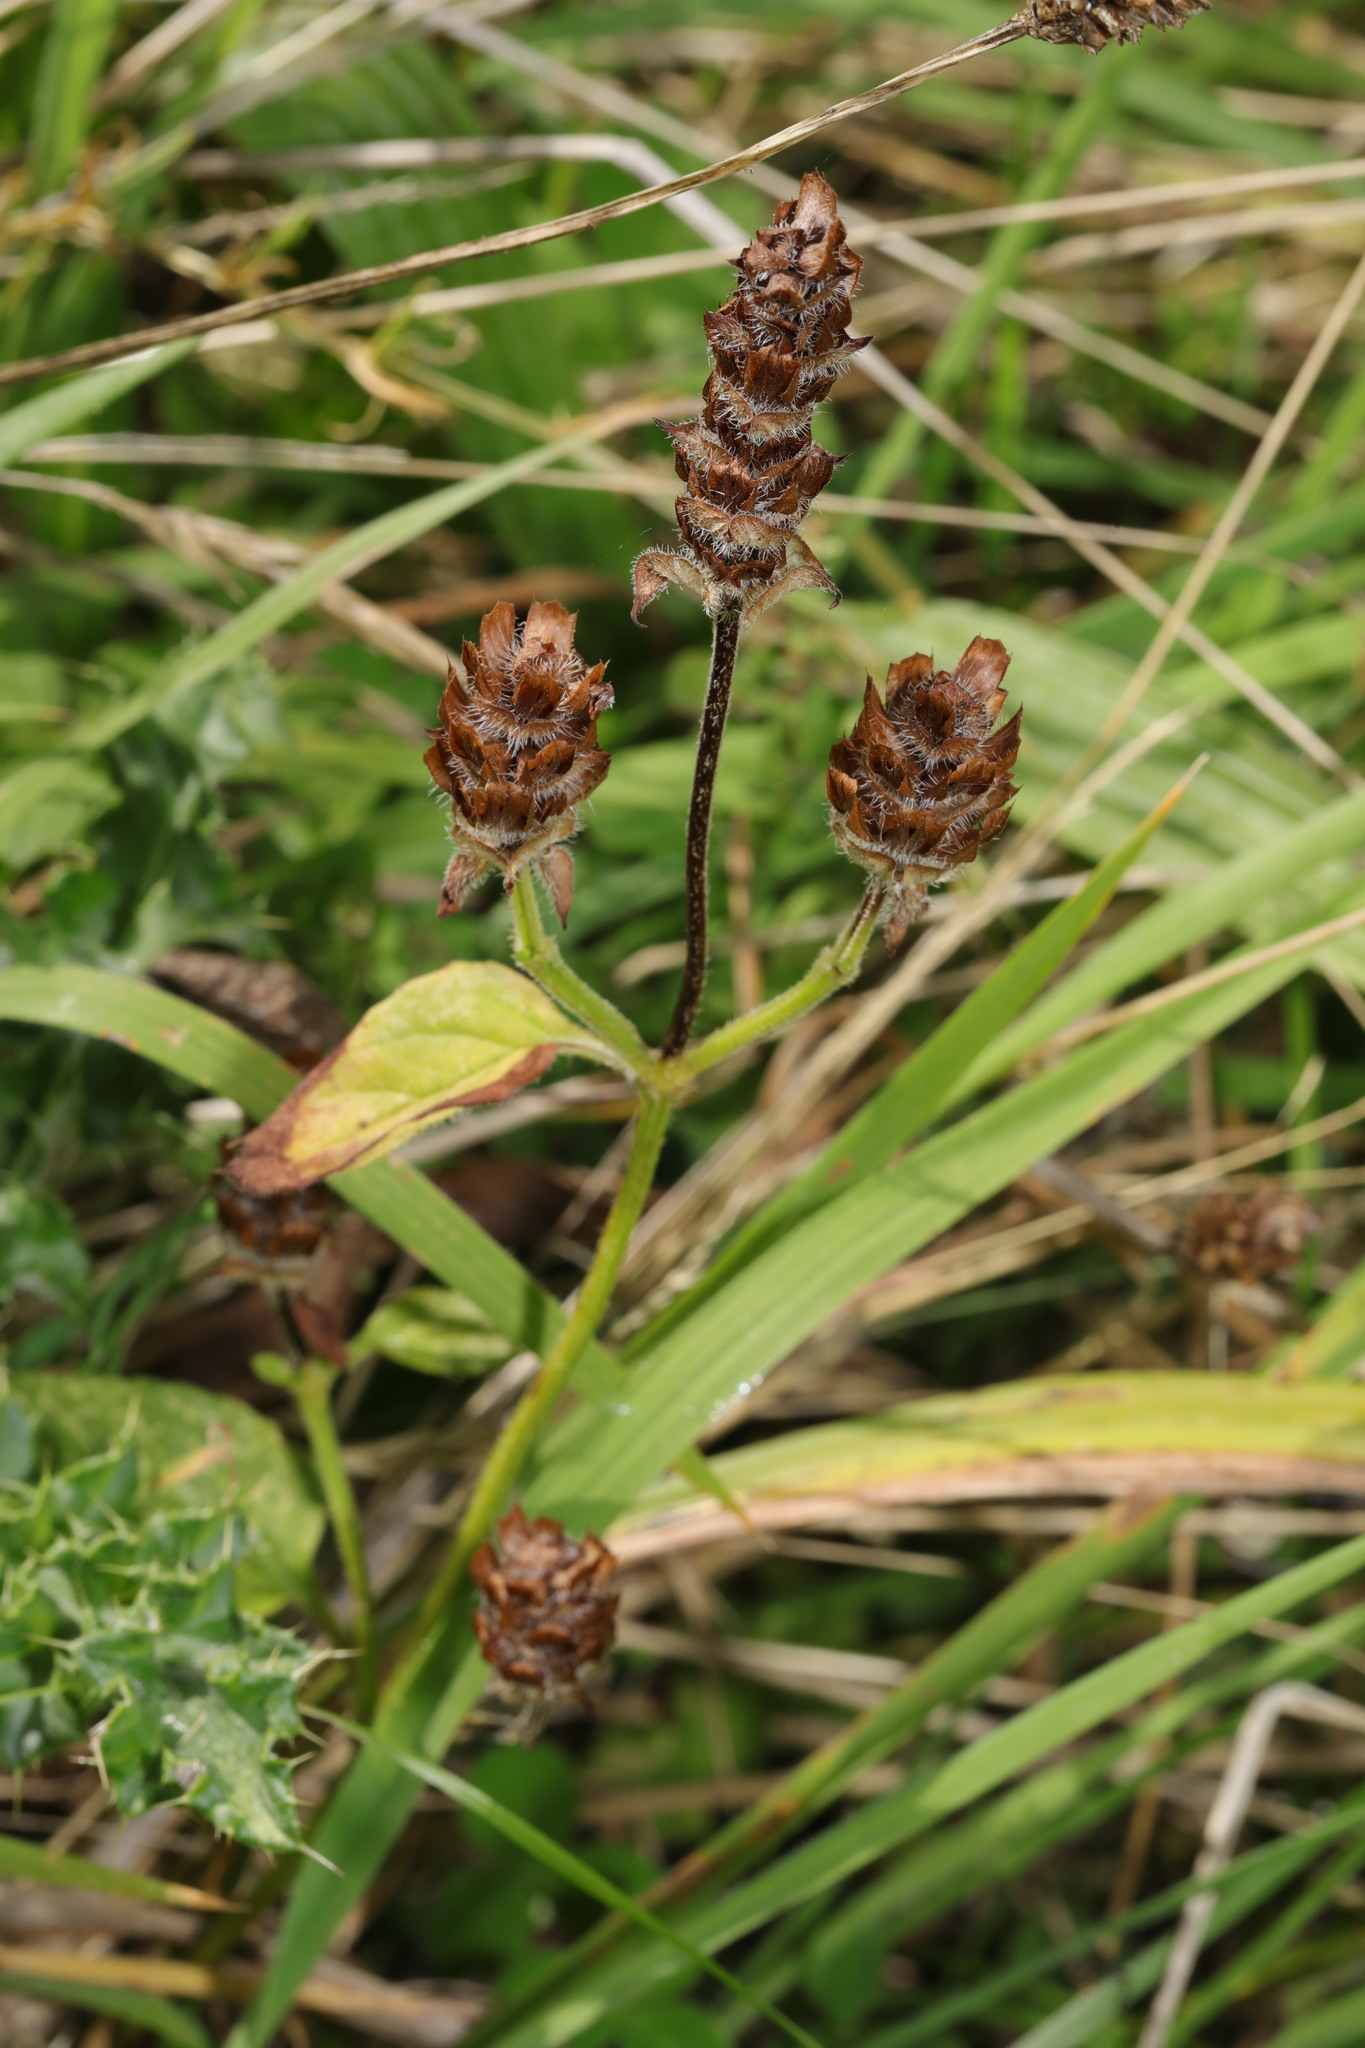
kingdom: Plantae
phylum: Tracheophyta
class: Magnoliopsida
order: Lamiales
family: Lamiaceae
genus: Prunella
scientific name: Prunella vulgaris
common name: Heal-all
